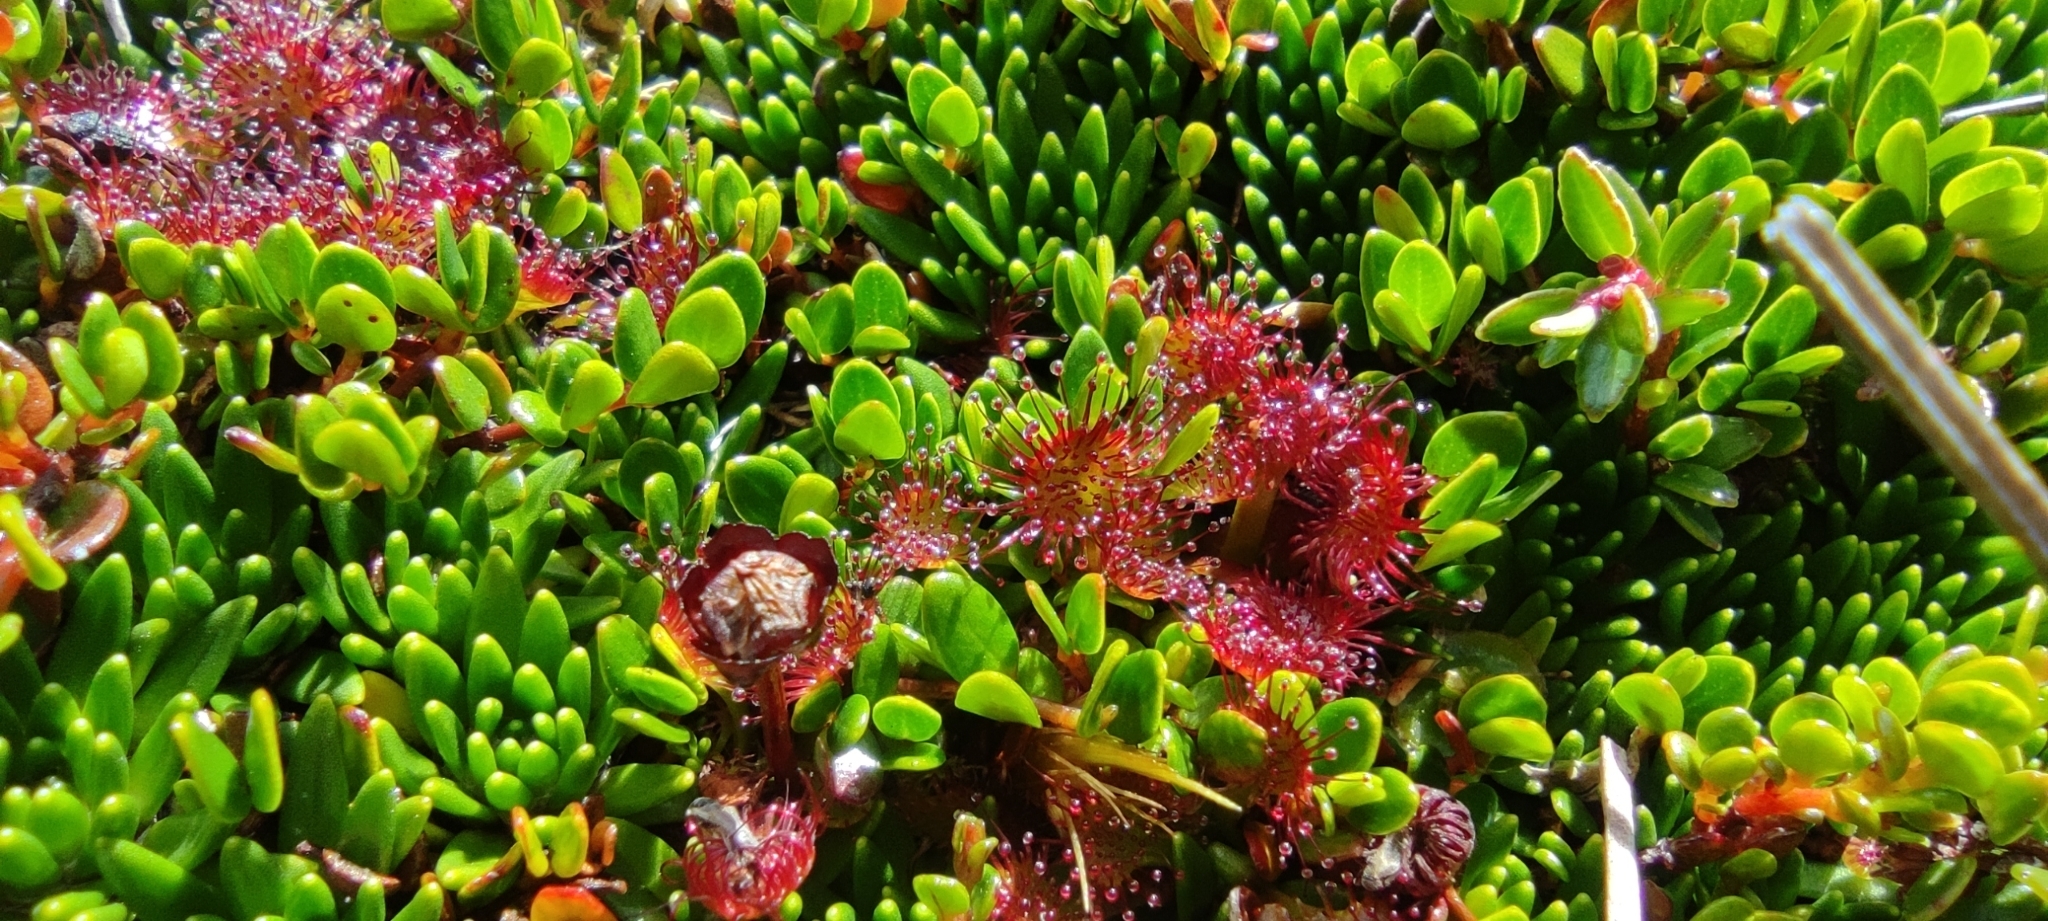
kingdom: Plantae
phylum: Tracheophyta
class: Magnoliopsida
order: Caryophyllales
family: Droseraceae
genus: Drosera
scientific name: Drosera uniflora
